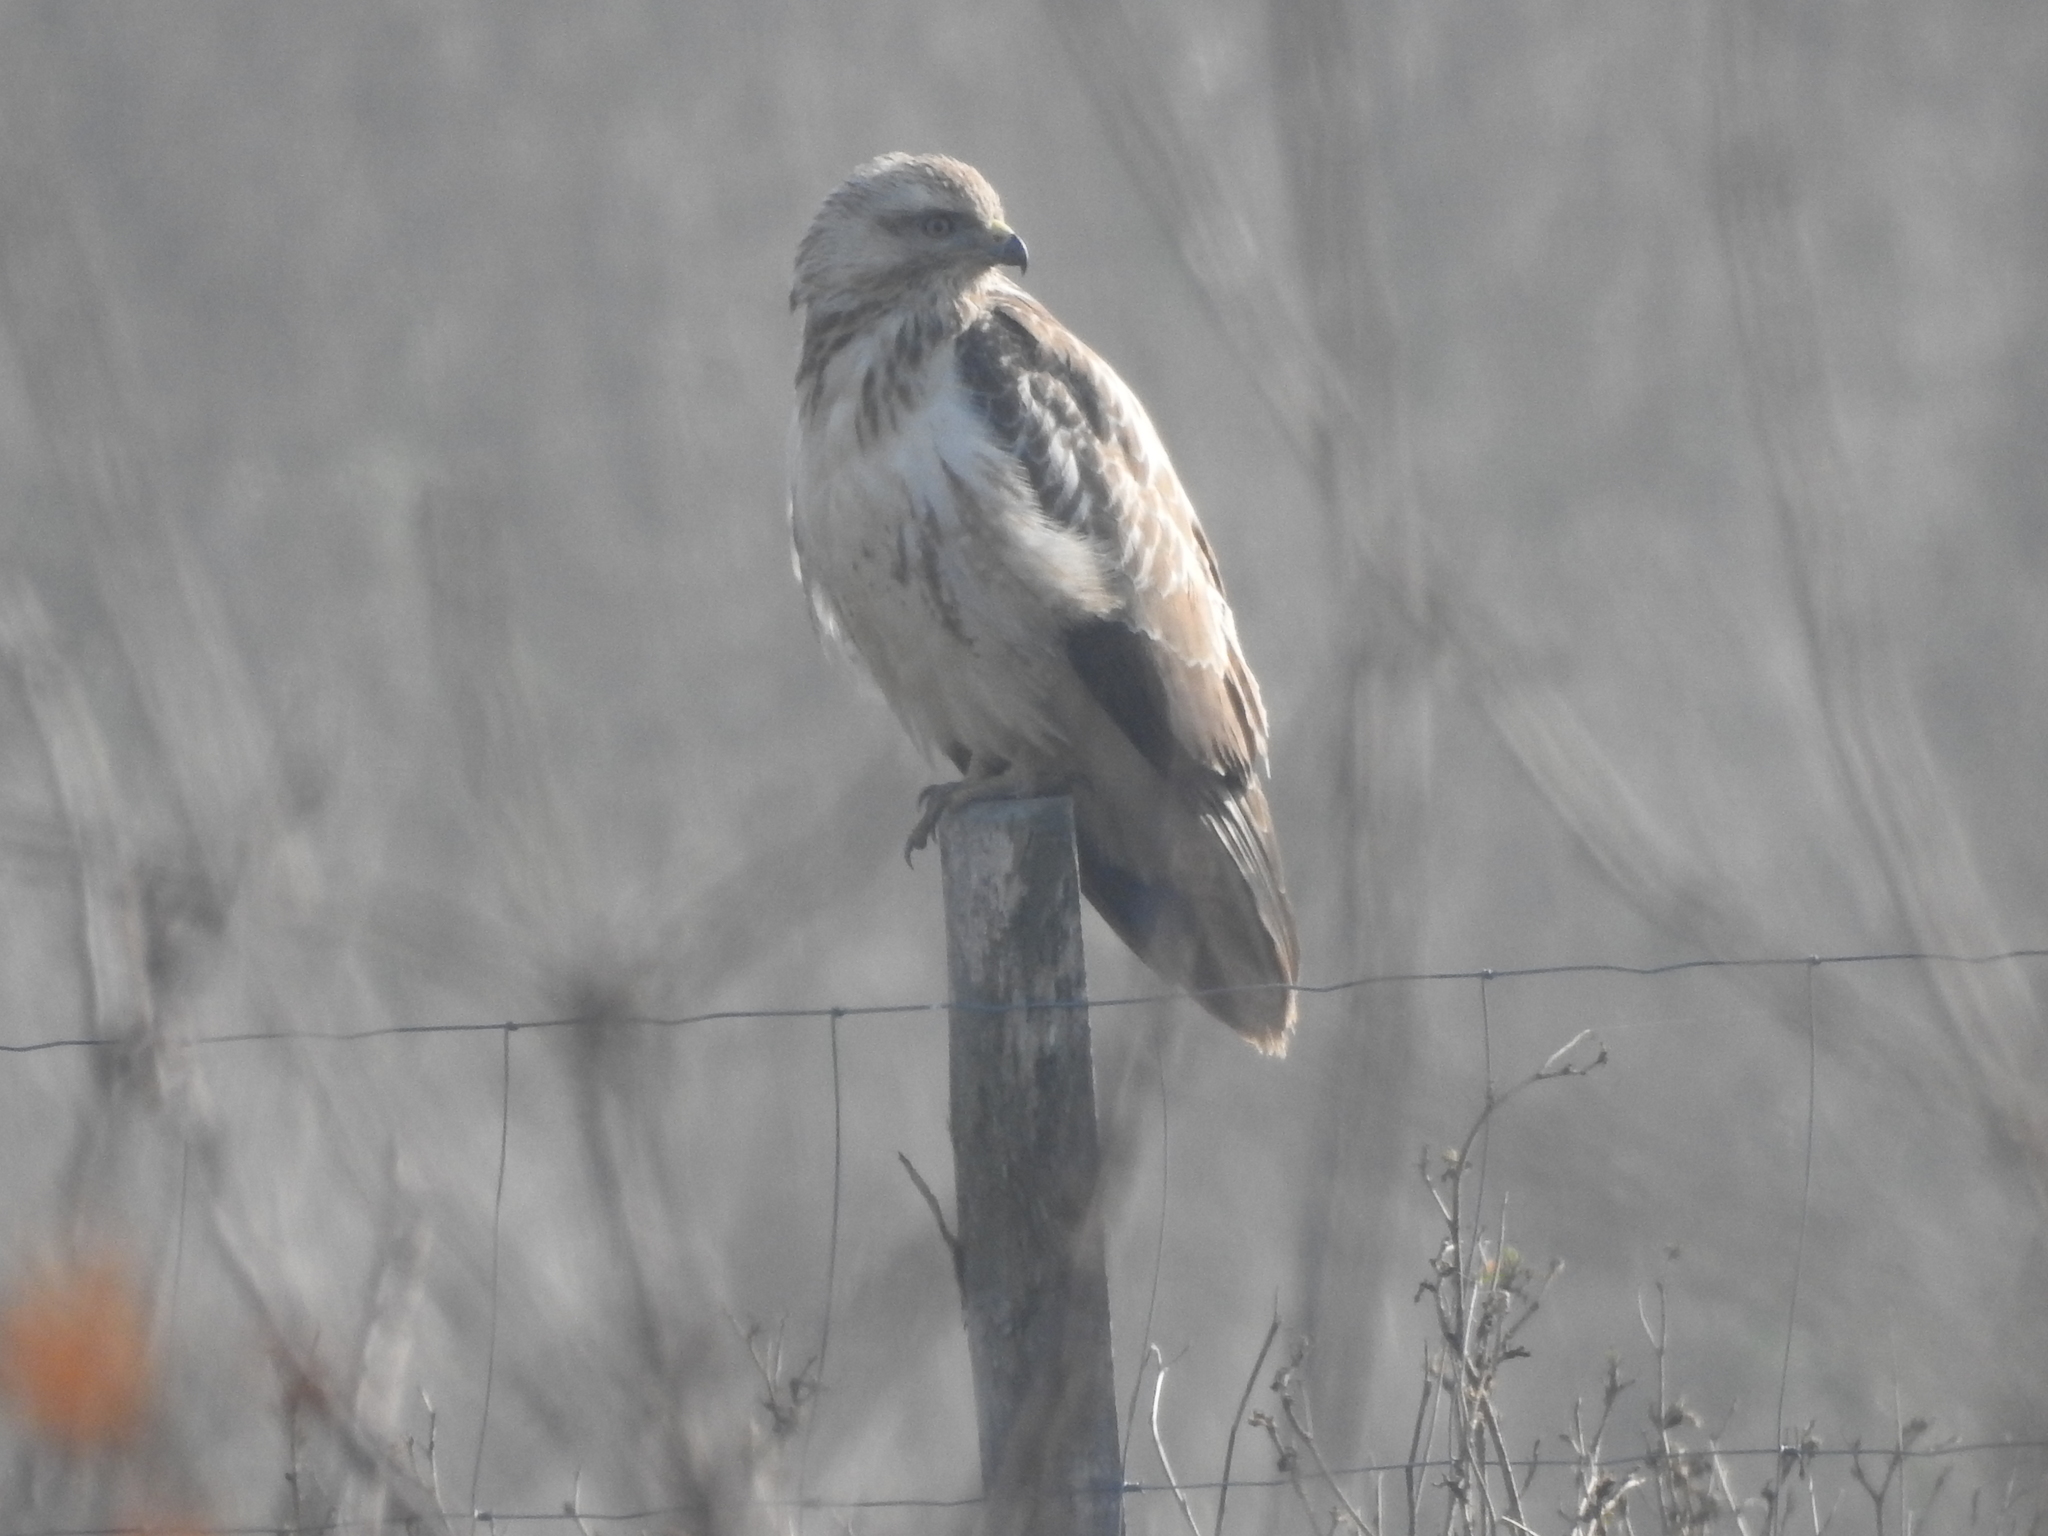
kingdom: Animalia
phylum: Chordata
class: Aves
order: Accipitriformes
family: Accipitridae
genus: Buteo
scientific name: Buteo buteo
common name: Common buzzard
